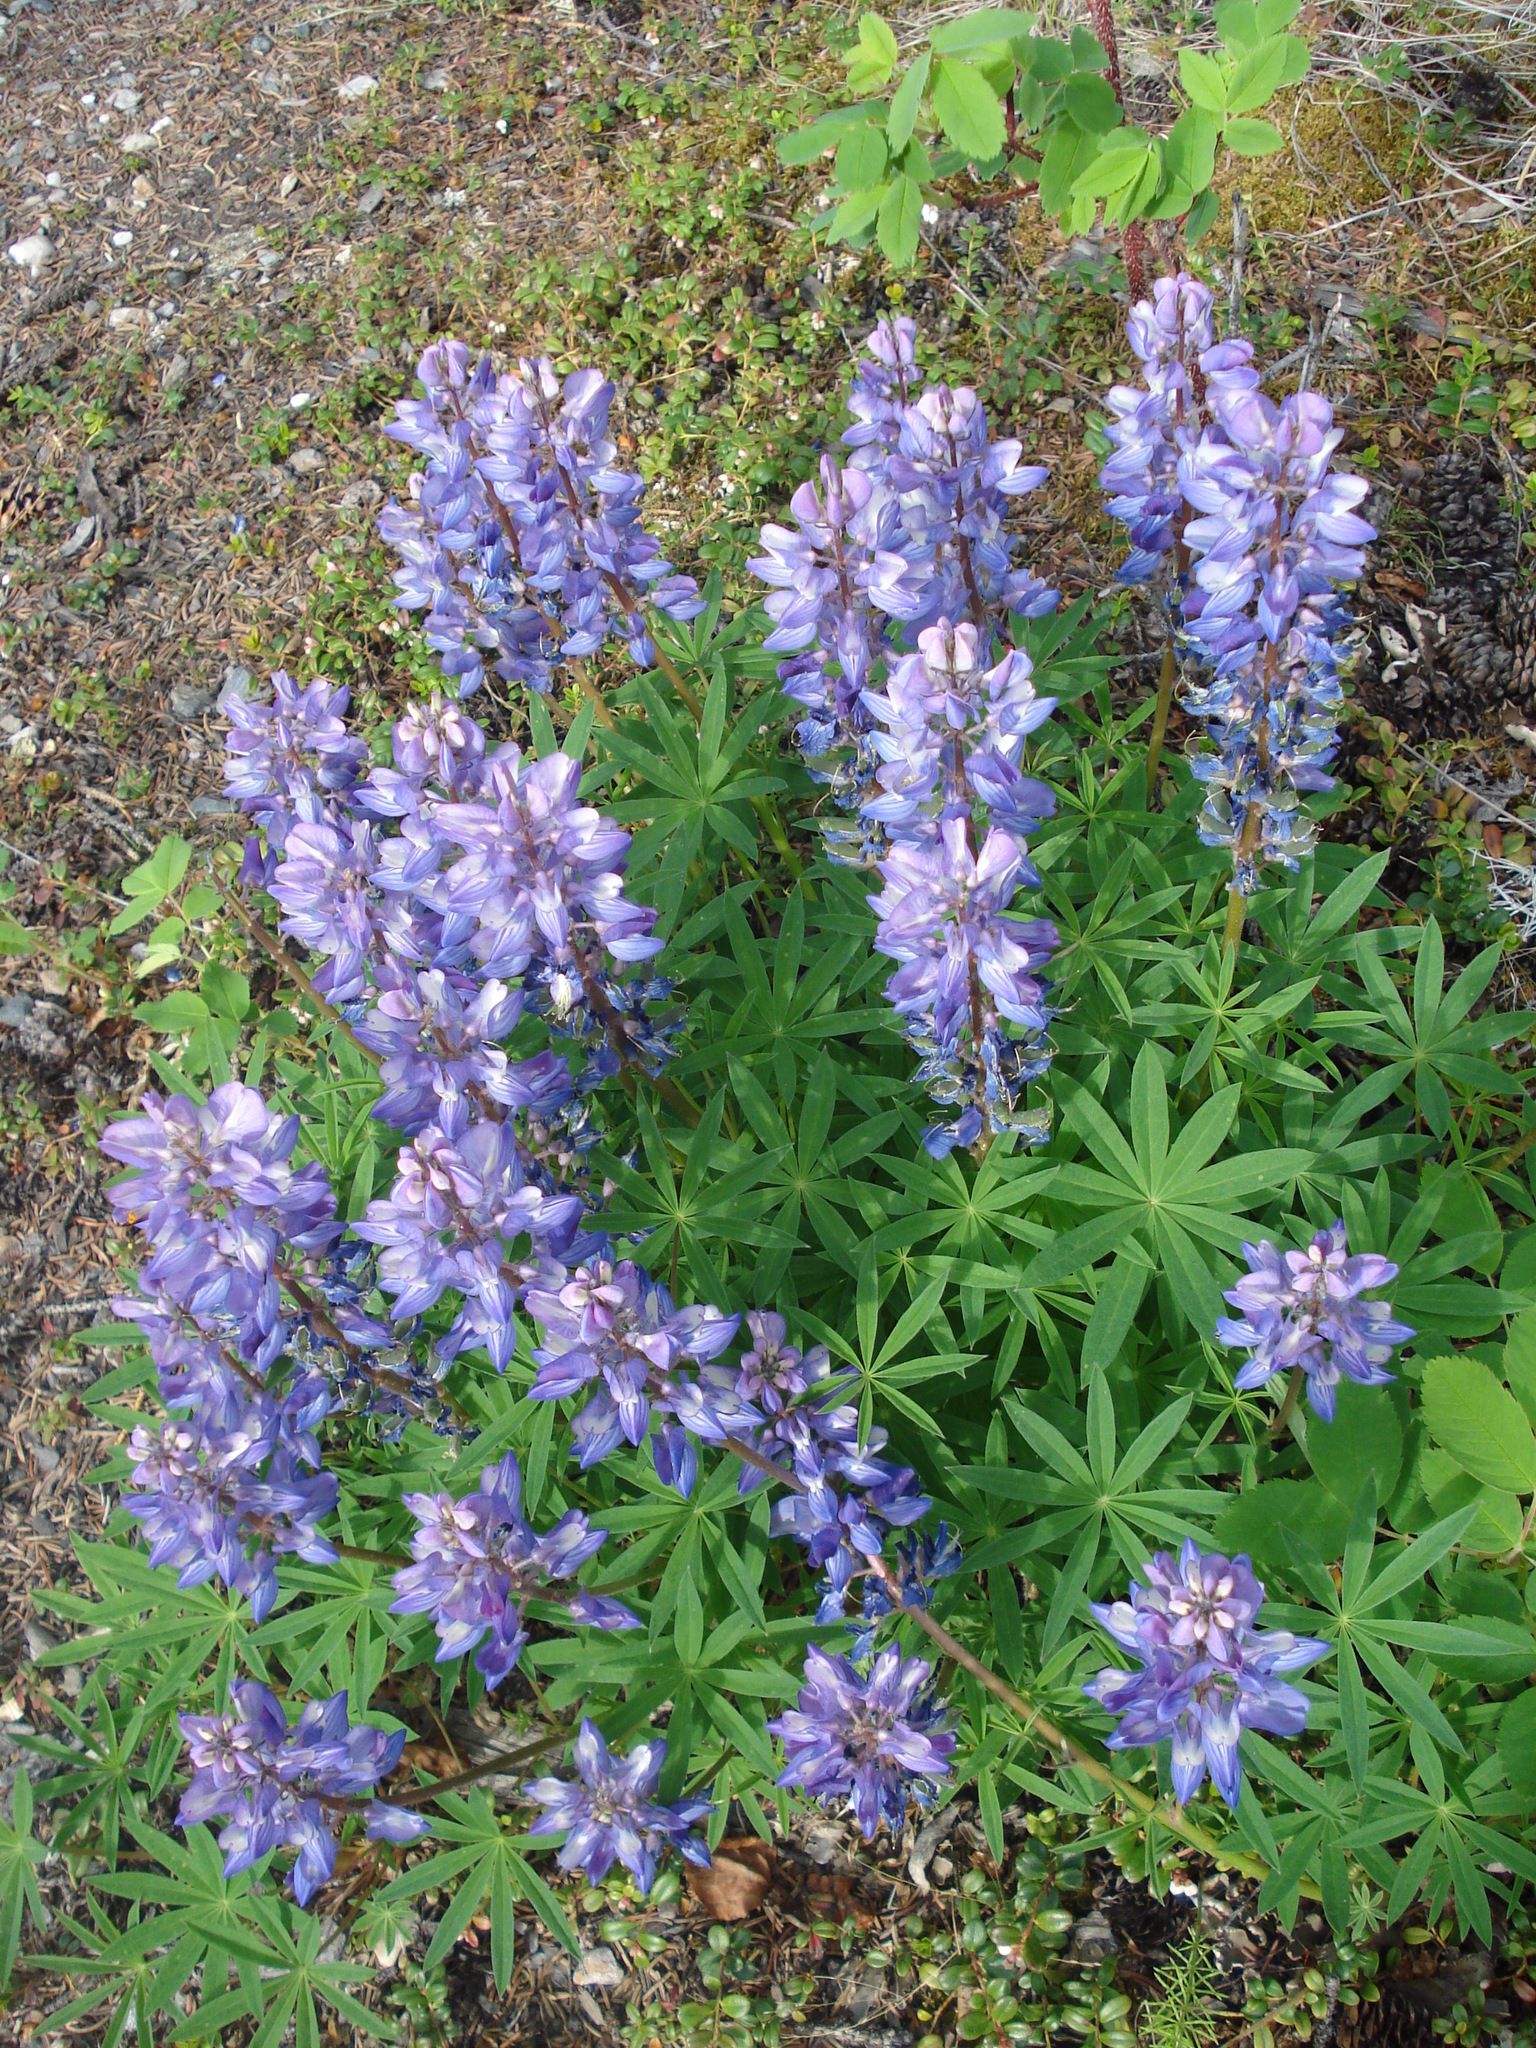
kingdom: Plantae
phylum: Tracheophyta
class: Magnoliopsida
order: Fabales
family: Fabaceae
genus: Lupinus
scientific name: Lupinus arcticus
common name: Arctic lupine
